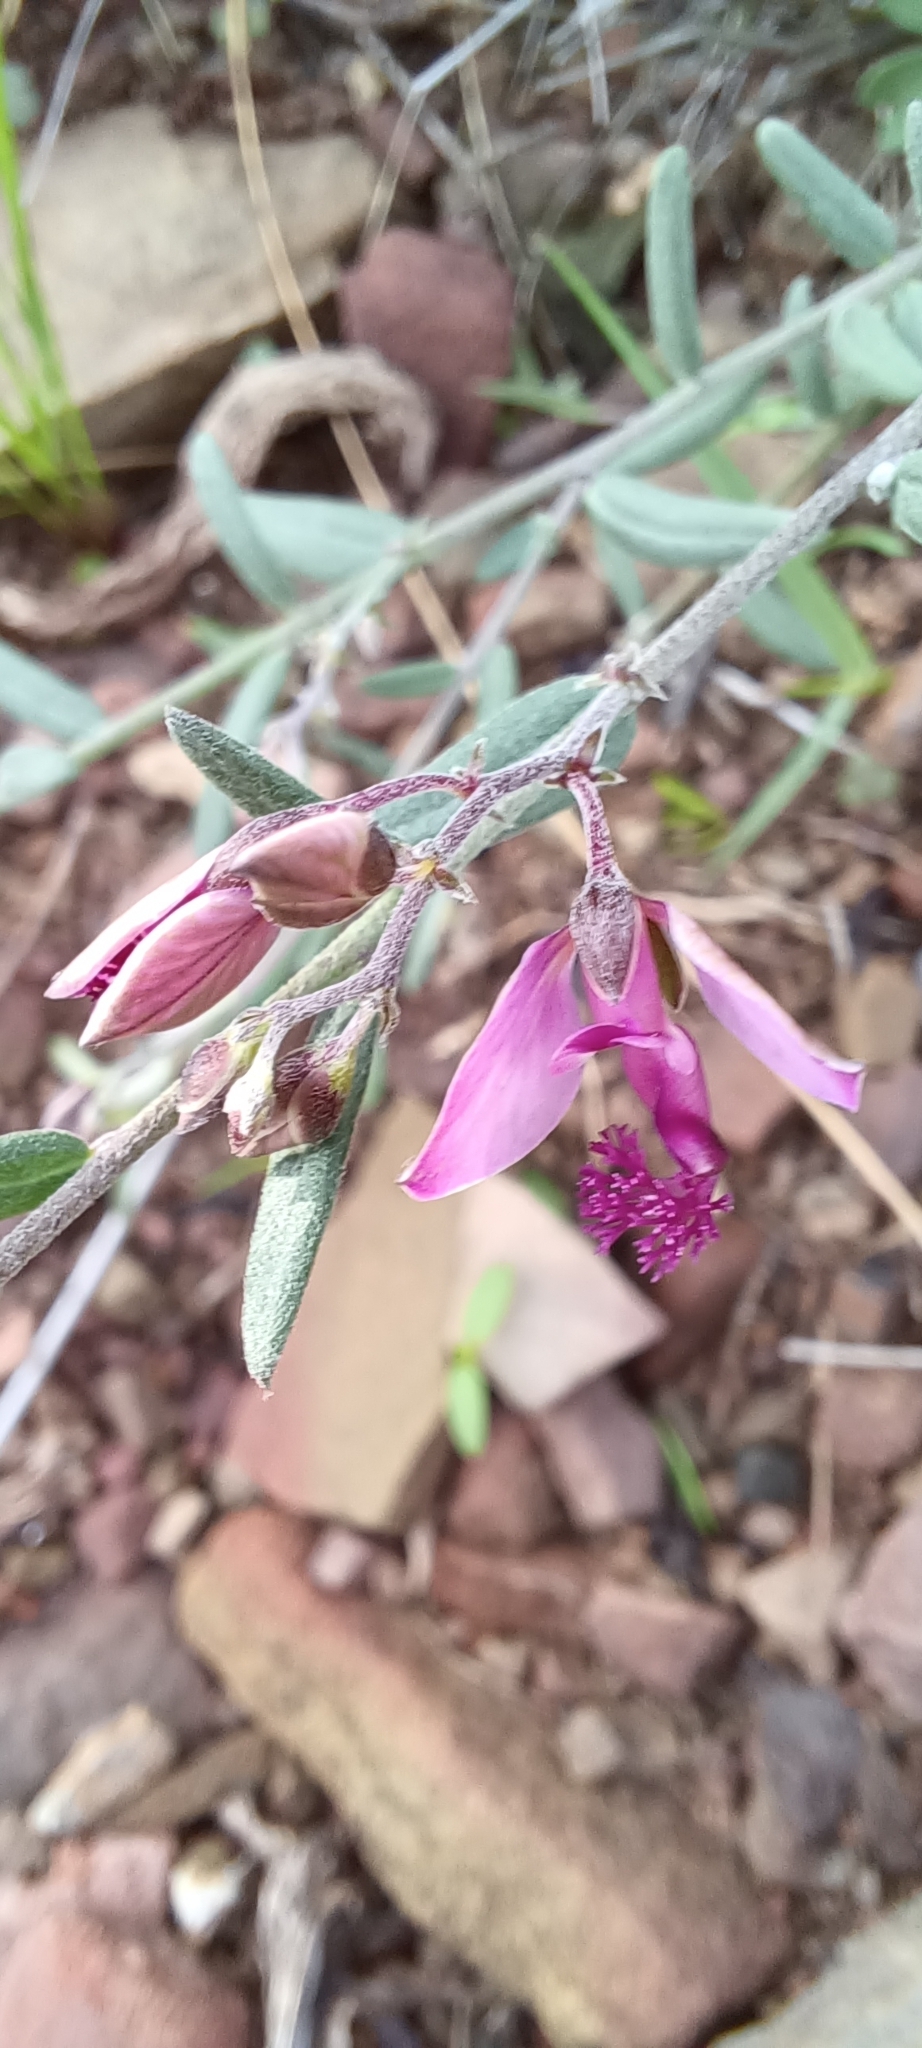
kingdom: Plantae
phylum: Tracheophyta
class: Magnoliopsida
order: Fabales
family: Polygalaceae
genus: Polygala
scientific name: Polygala scabra
